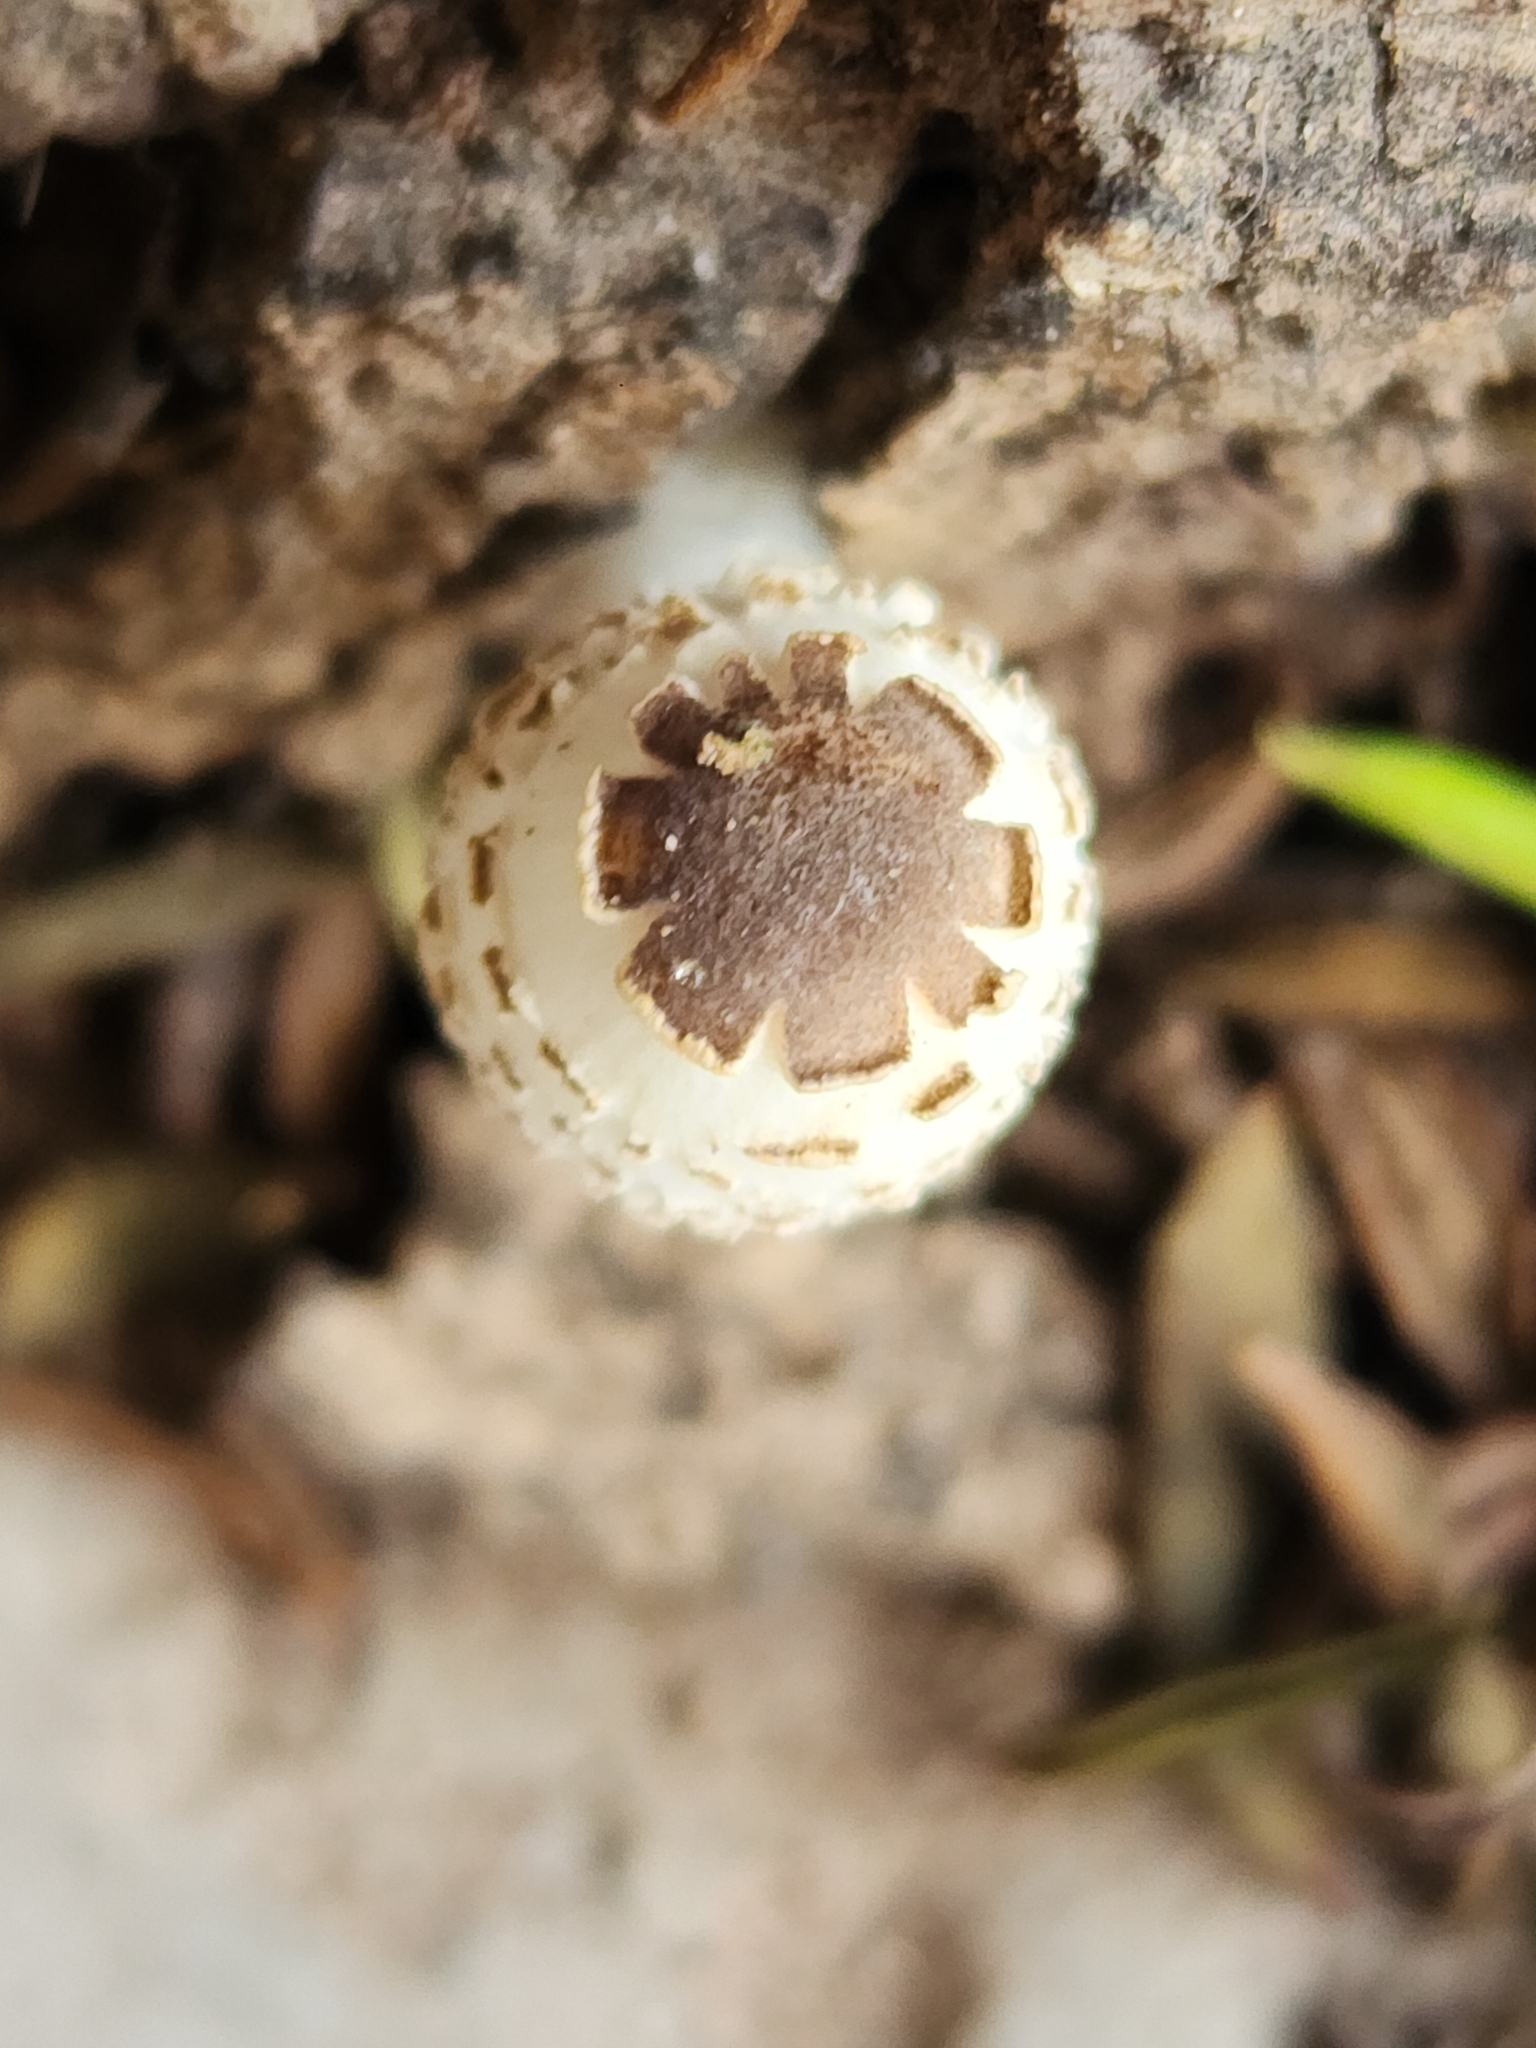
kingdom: Fungi
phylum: Basidiomycota
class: Agaricomycetes
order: Agaricales
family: Agaricaceae
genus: Leucocoprinus
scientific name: Leucocoprinus brebissonii
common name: Skullcap dapperling
